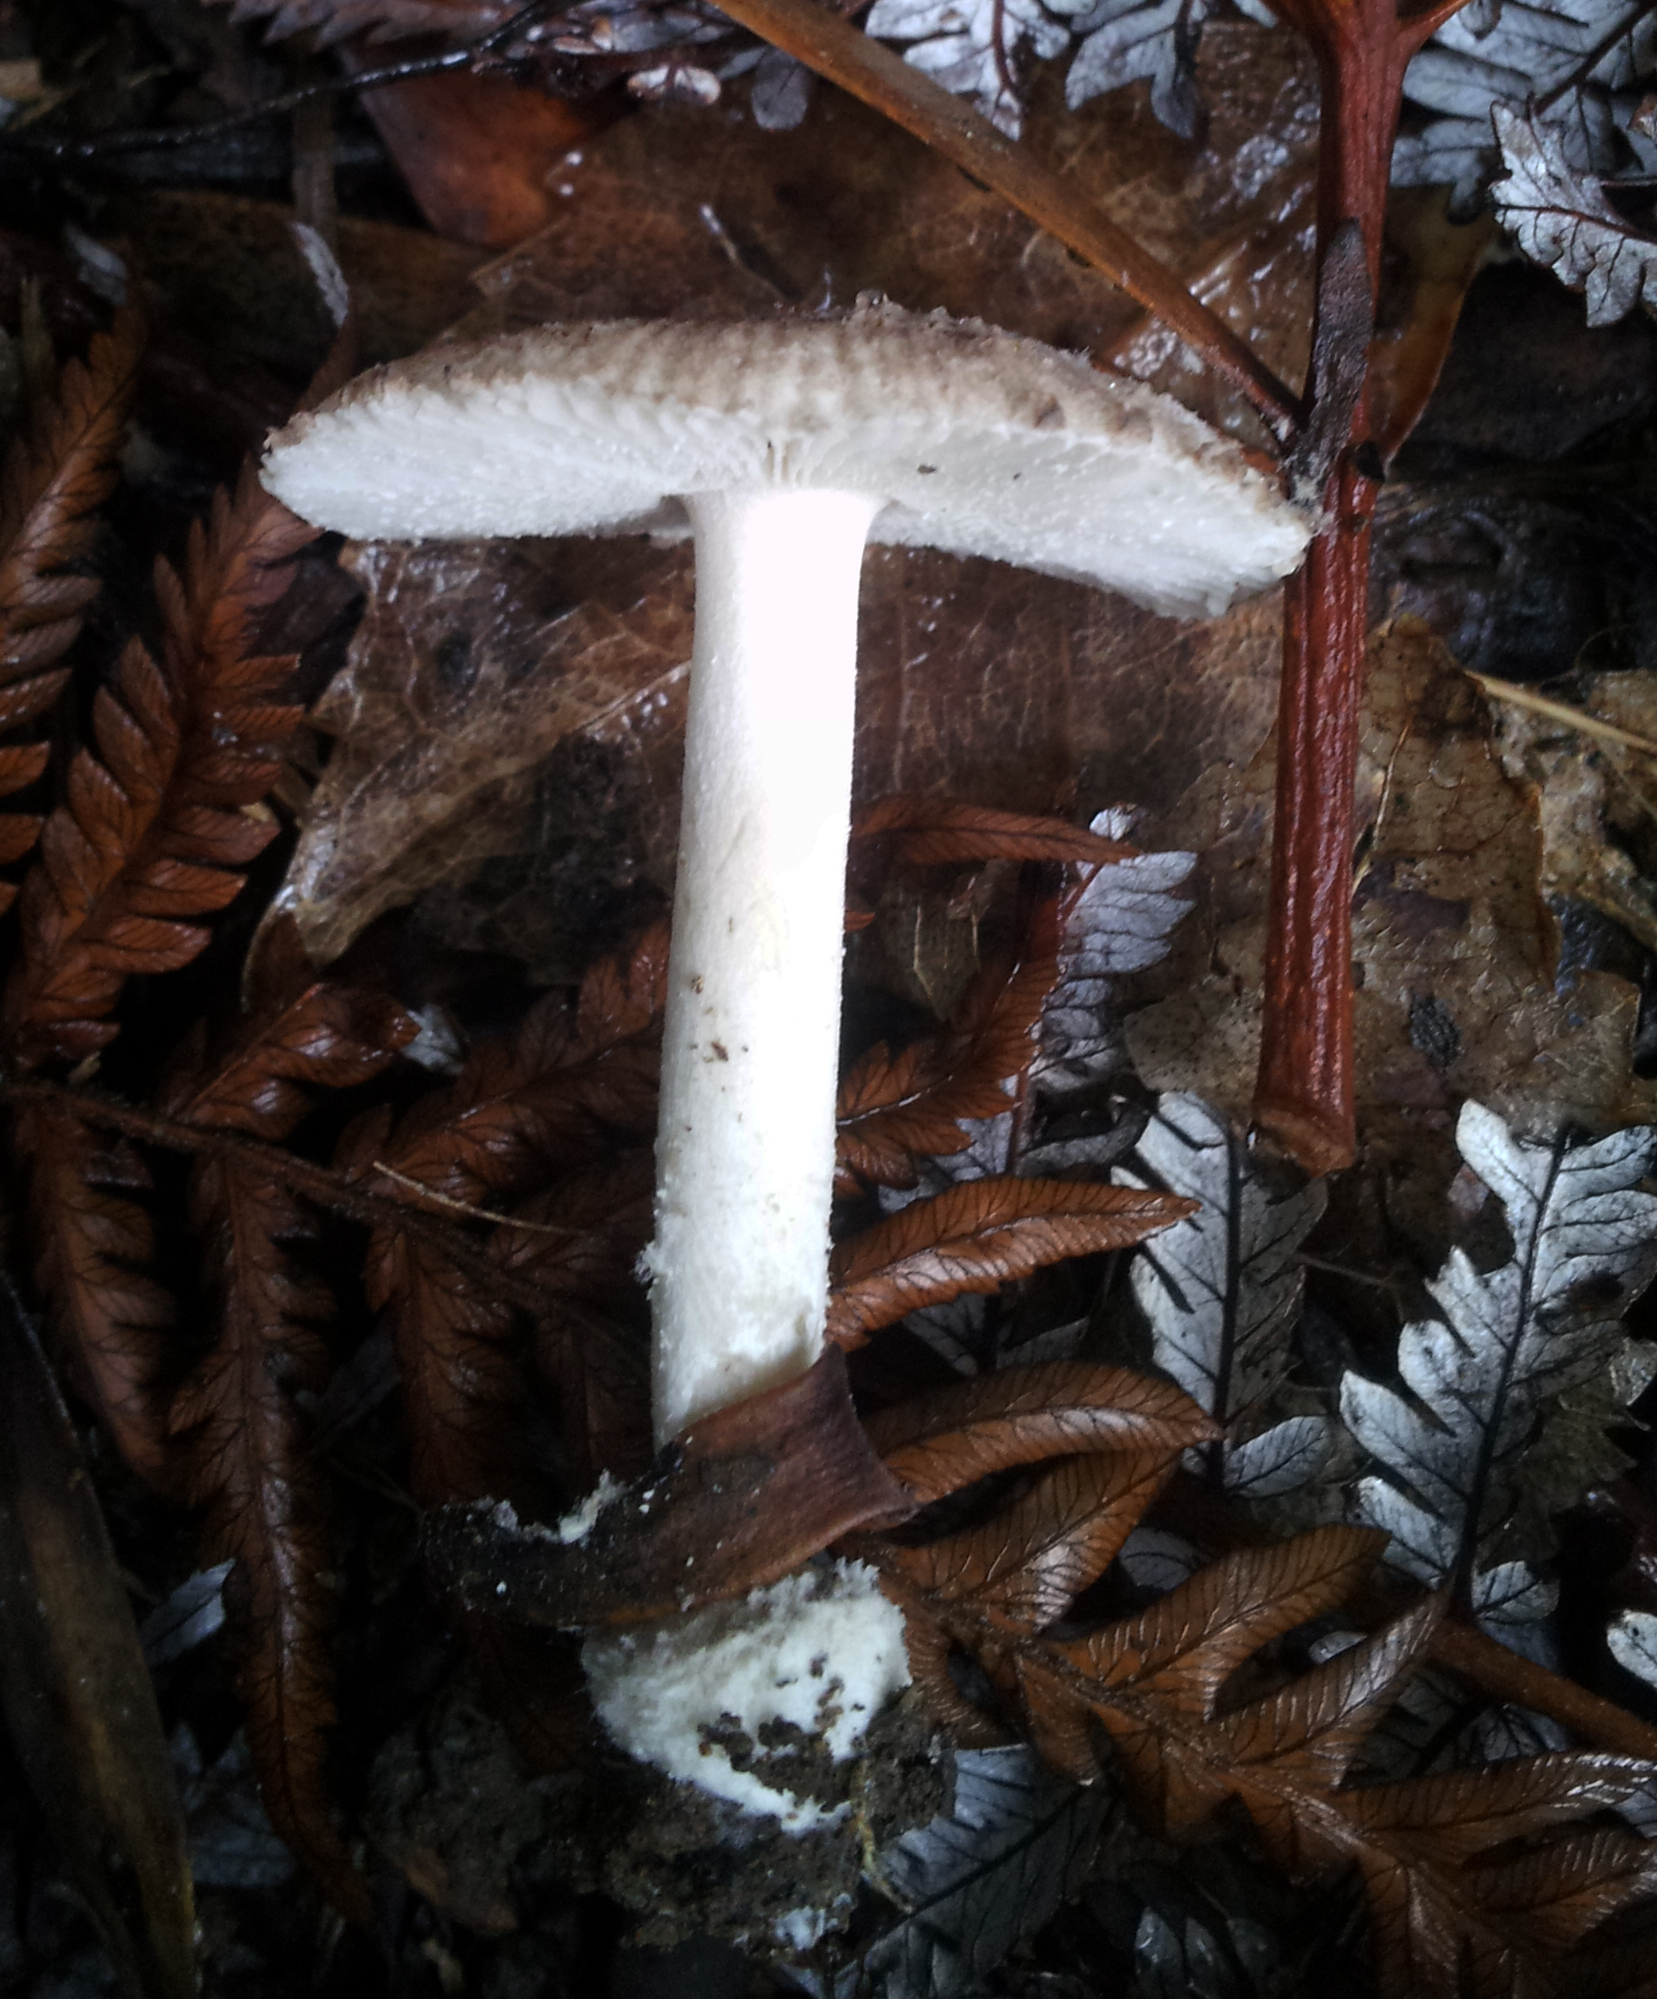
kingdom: Fungi
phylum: Basidiomycota
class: Agaricomycetes
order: Agaricales
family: Amanitaceae
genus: Amanita
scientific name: Amanita nehuta
